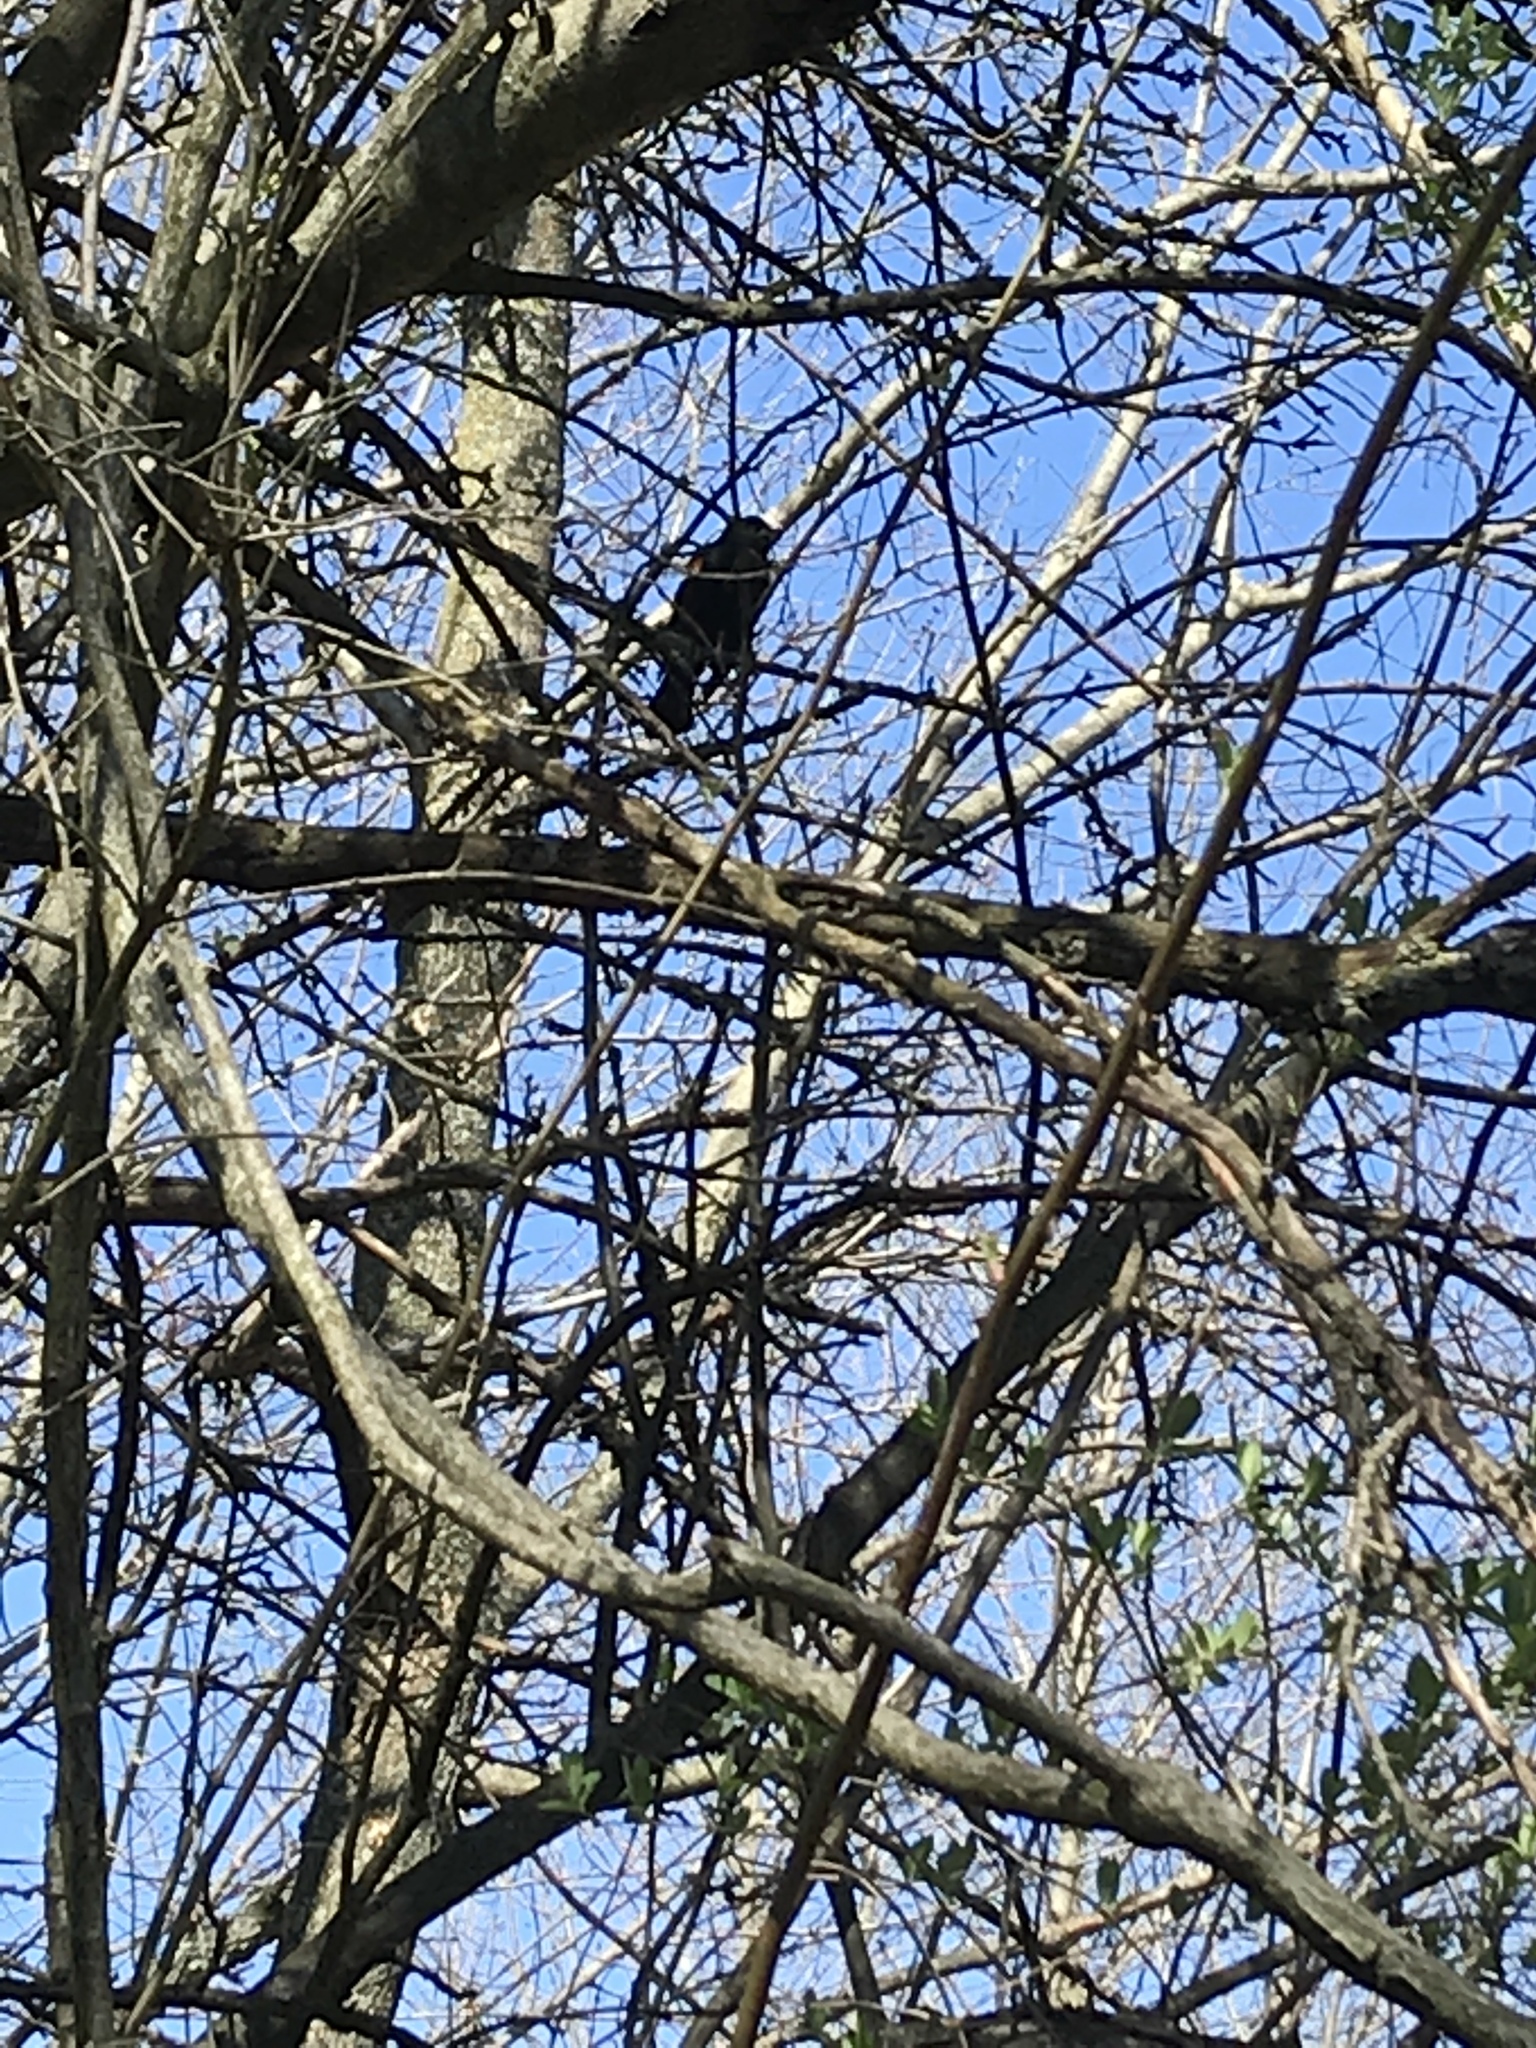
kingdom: Animalia
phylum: Chordata
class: Aves
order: Passeriformes
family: Icteridae
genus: Agelaius
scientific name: Agelaius phoeniceus
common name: Red-winged blackbird
